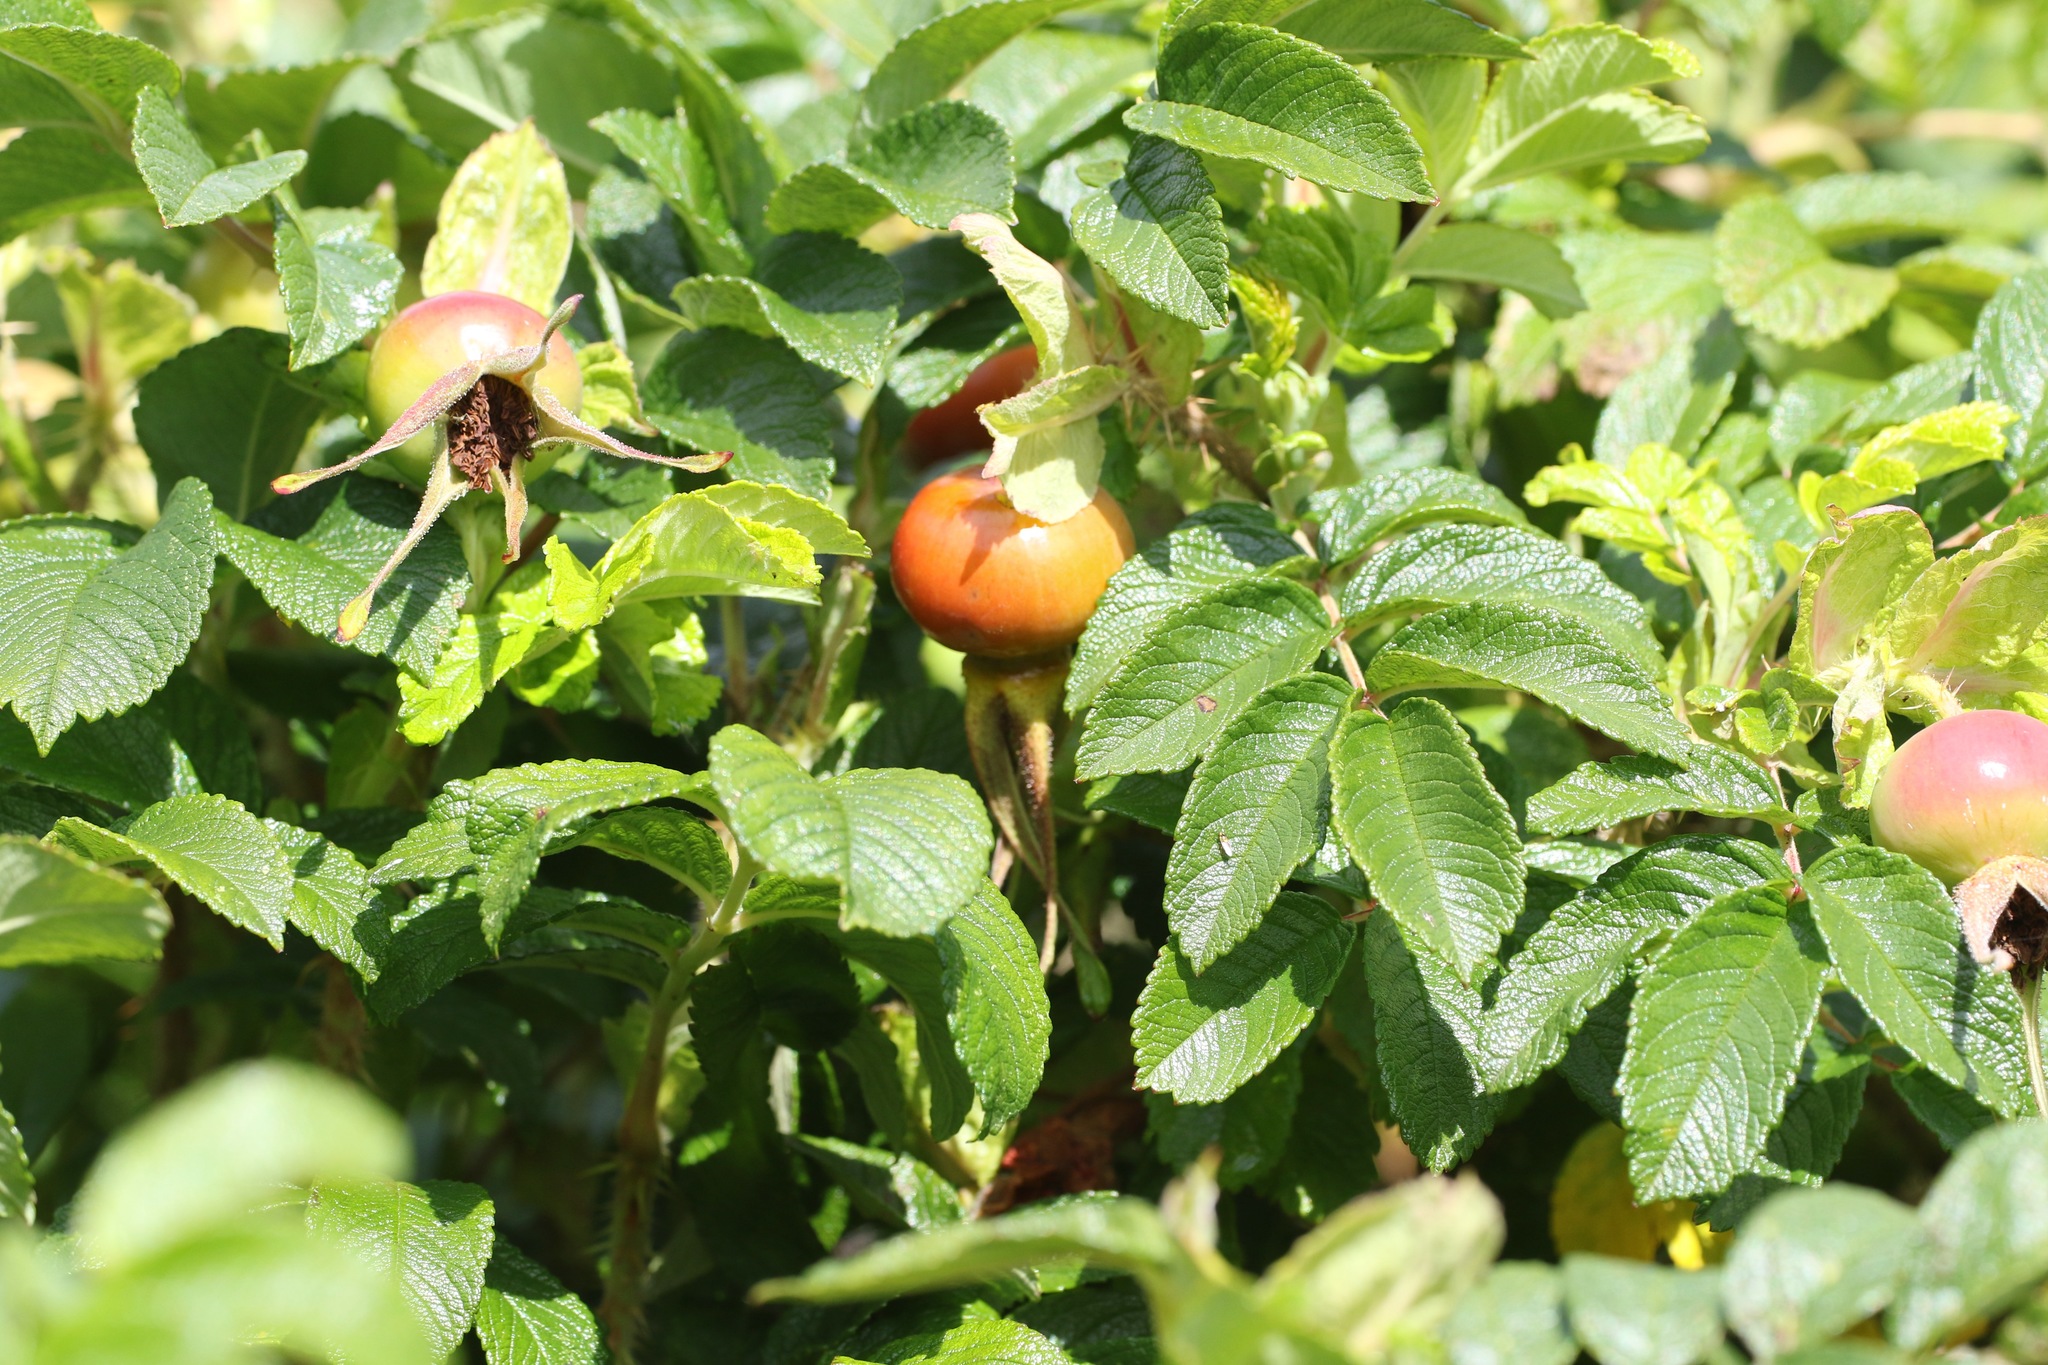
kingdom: Plantae
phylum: Tracheophyta
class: Magnoliopsida
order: Rosales
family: Rosaceae
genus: Rosa
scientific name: Rosa rugosa
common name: Japanese rose
